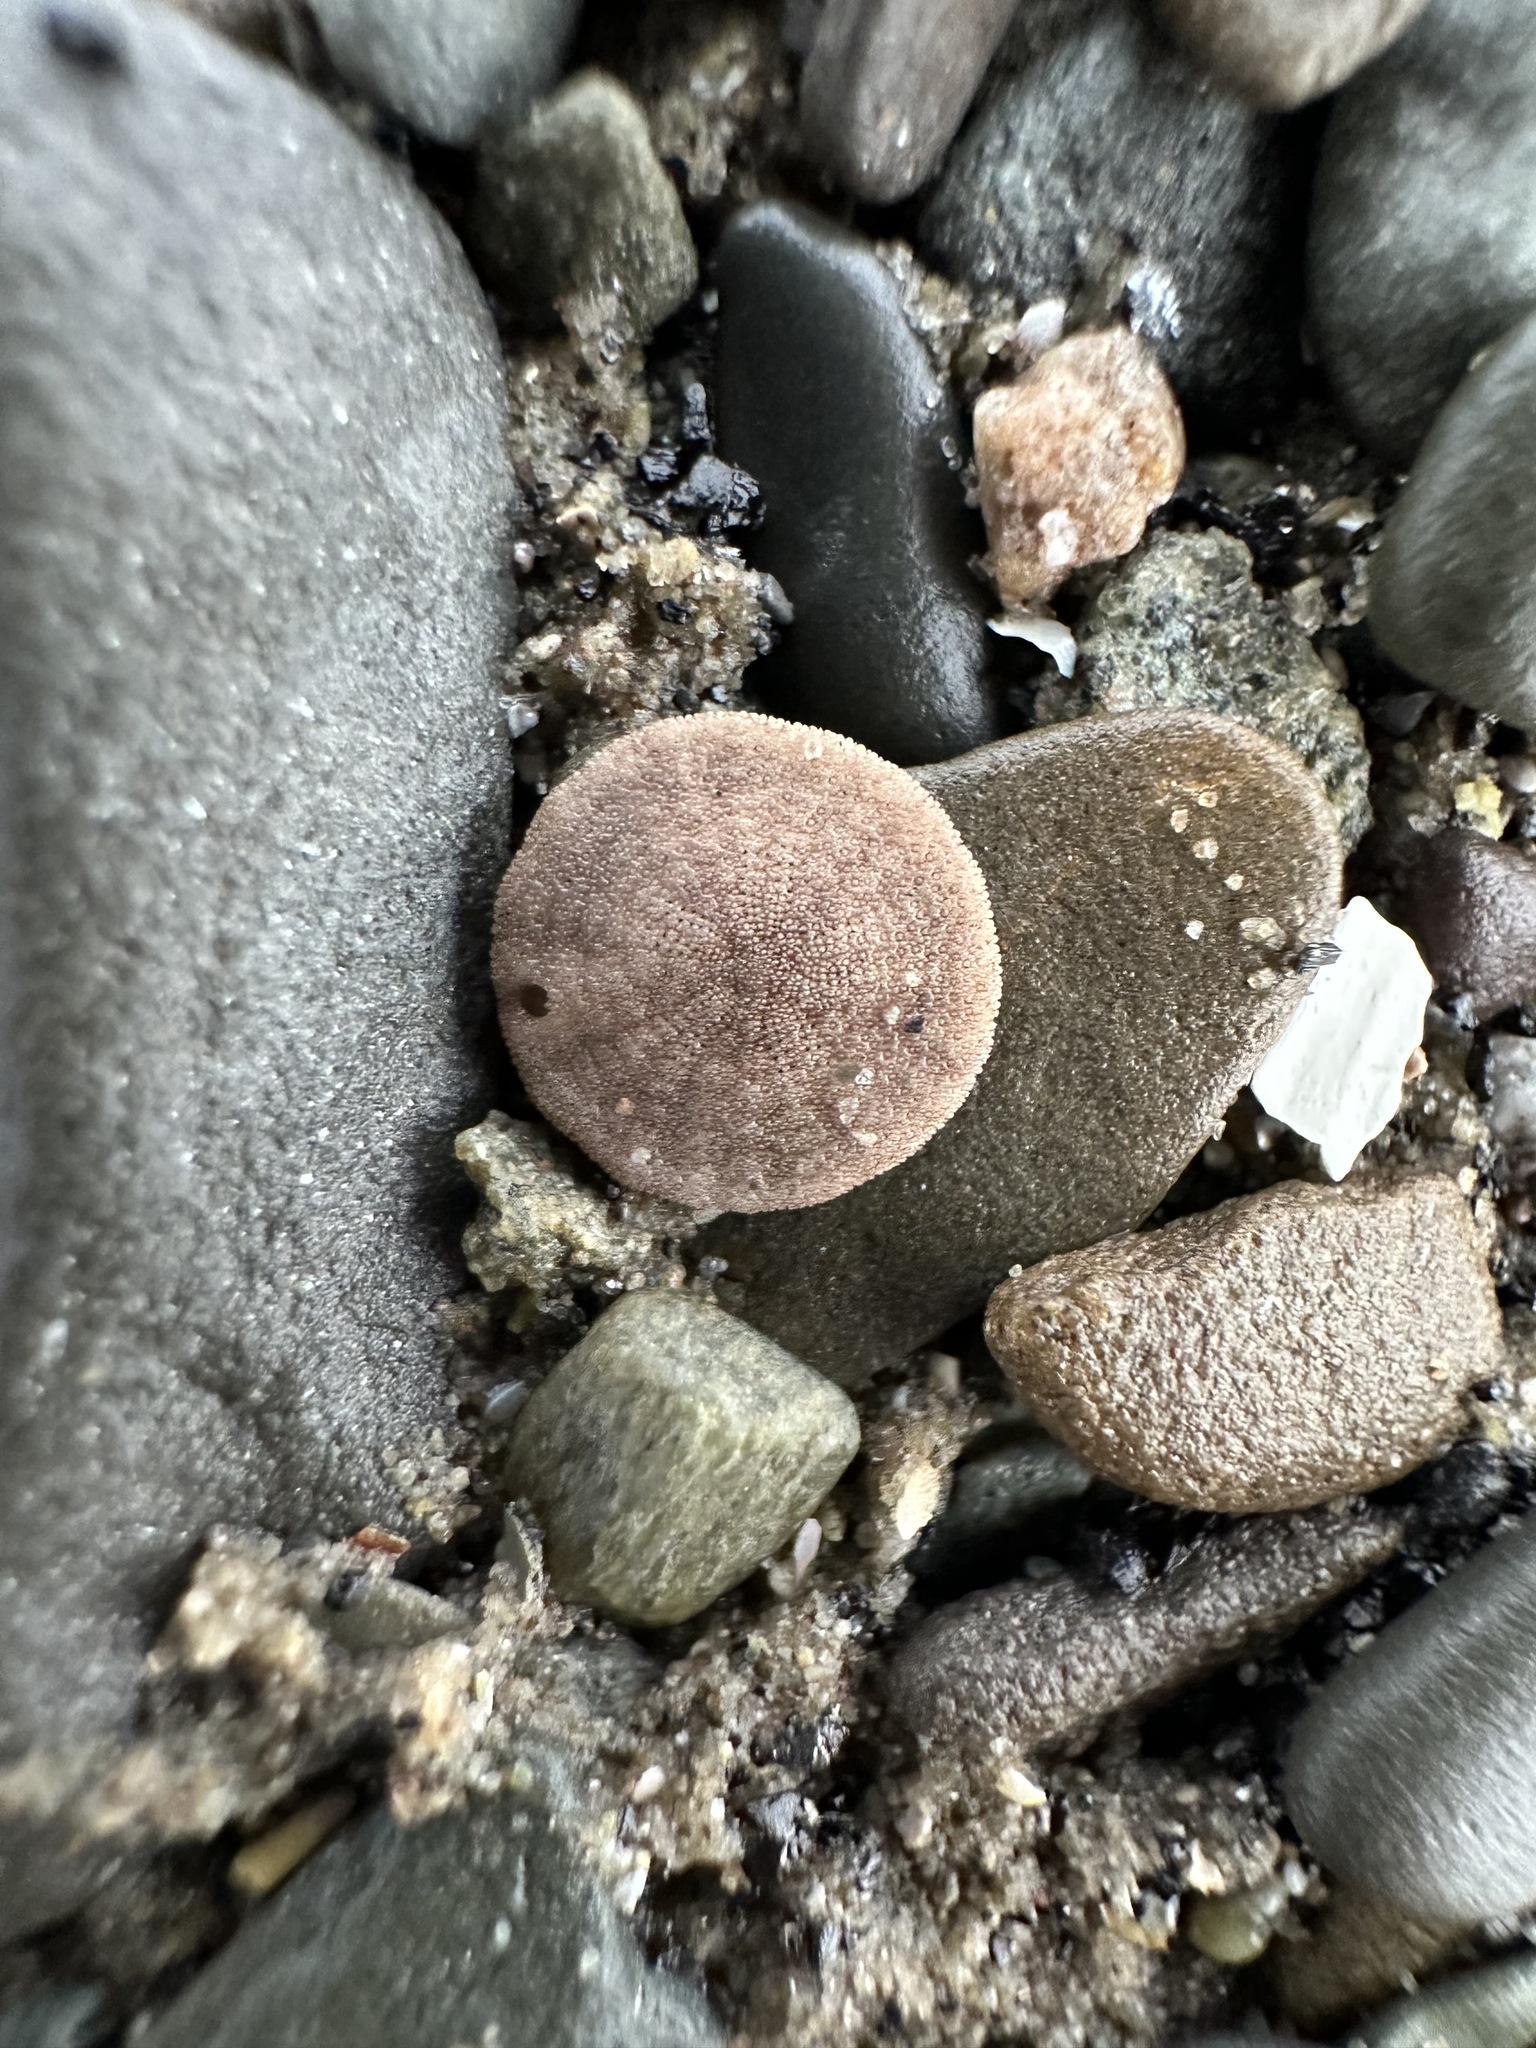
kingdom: Animalia
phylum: Echinodermata
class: Echinoidea
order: Echinolampadacea
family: Echinarachniidae
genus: Echinarachnius
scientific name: Echinarachnius parma
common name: Common sand dollar
